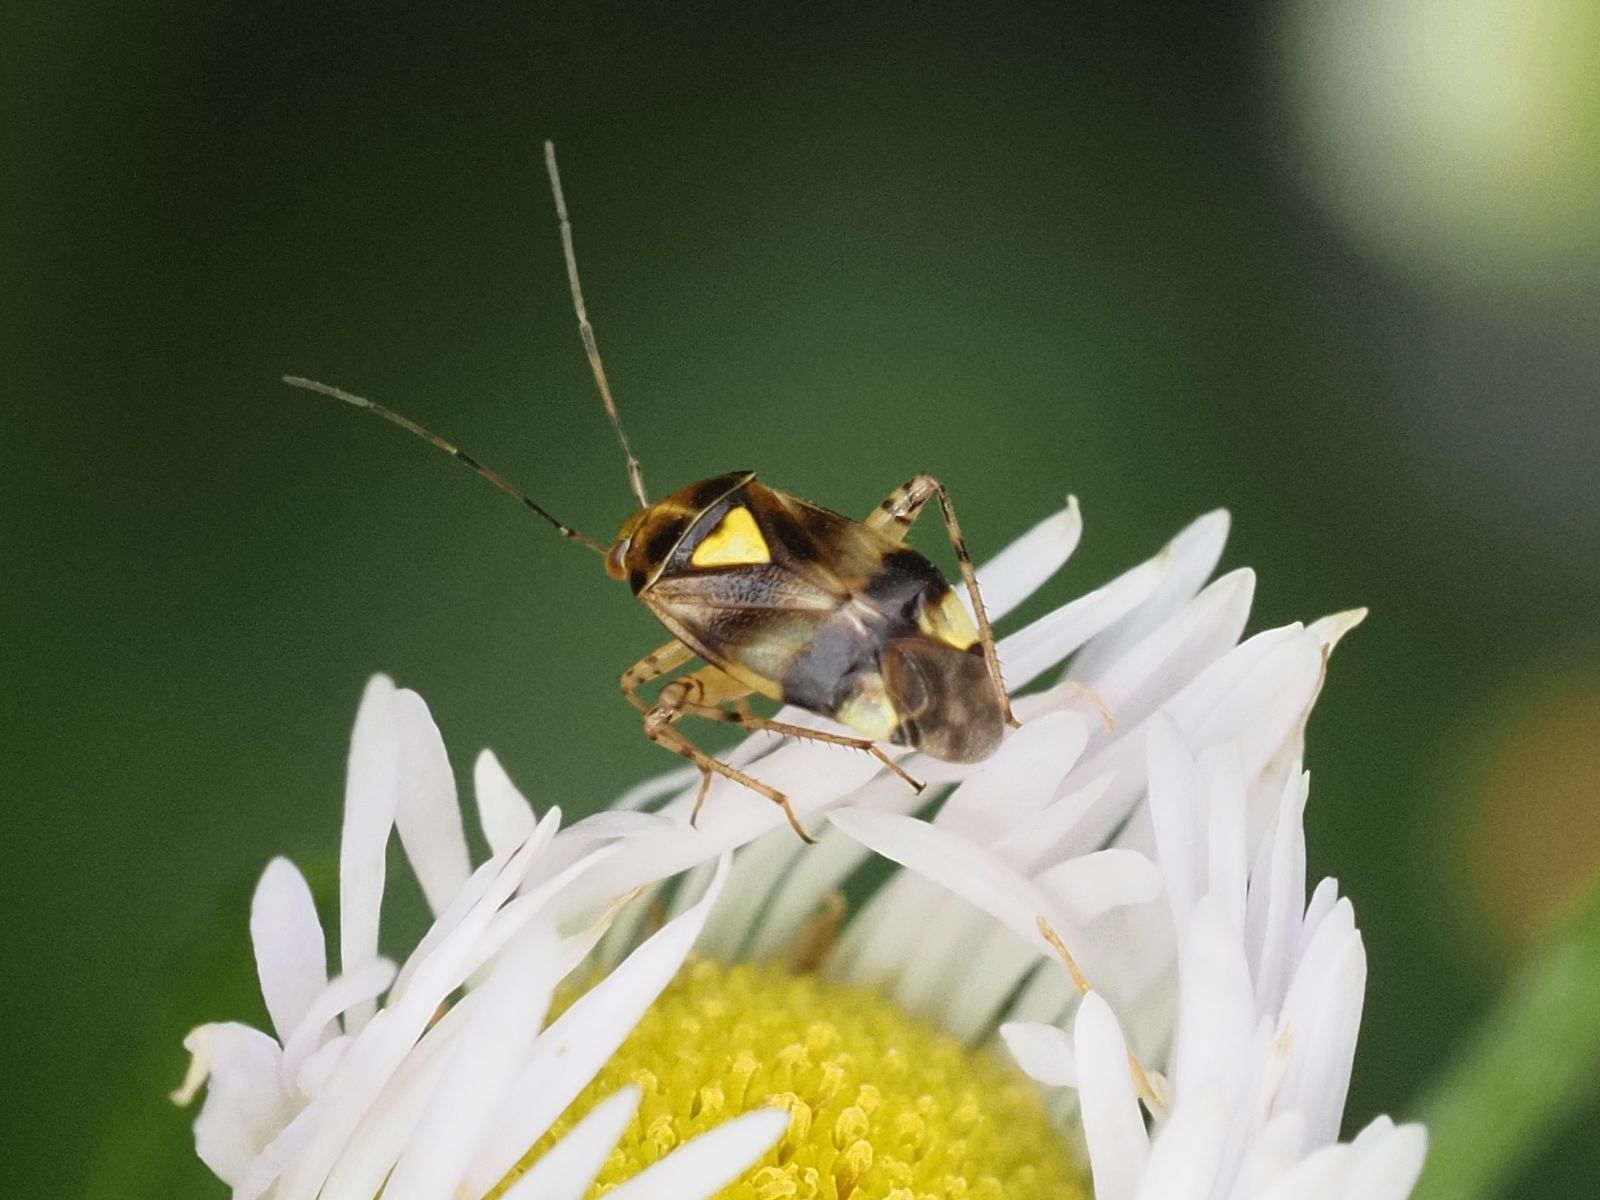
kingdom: Animalia
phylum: Arthropoda
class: Insecta
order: Hemiptera
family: Miridae
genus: Liocoris
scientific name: Liocoris tripustulatus
